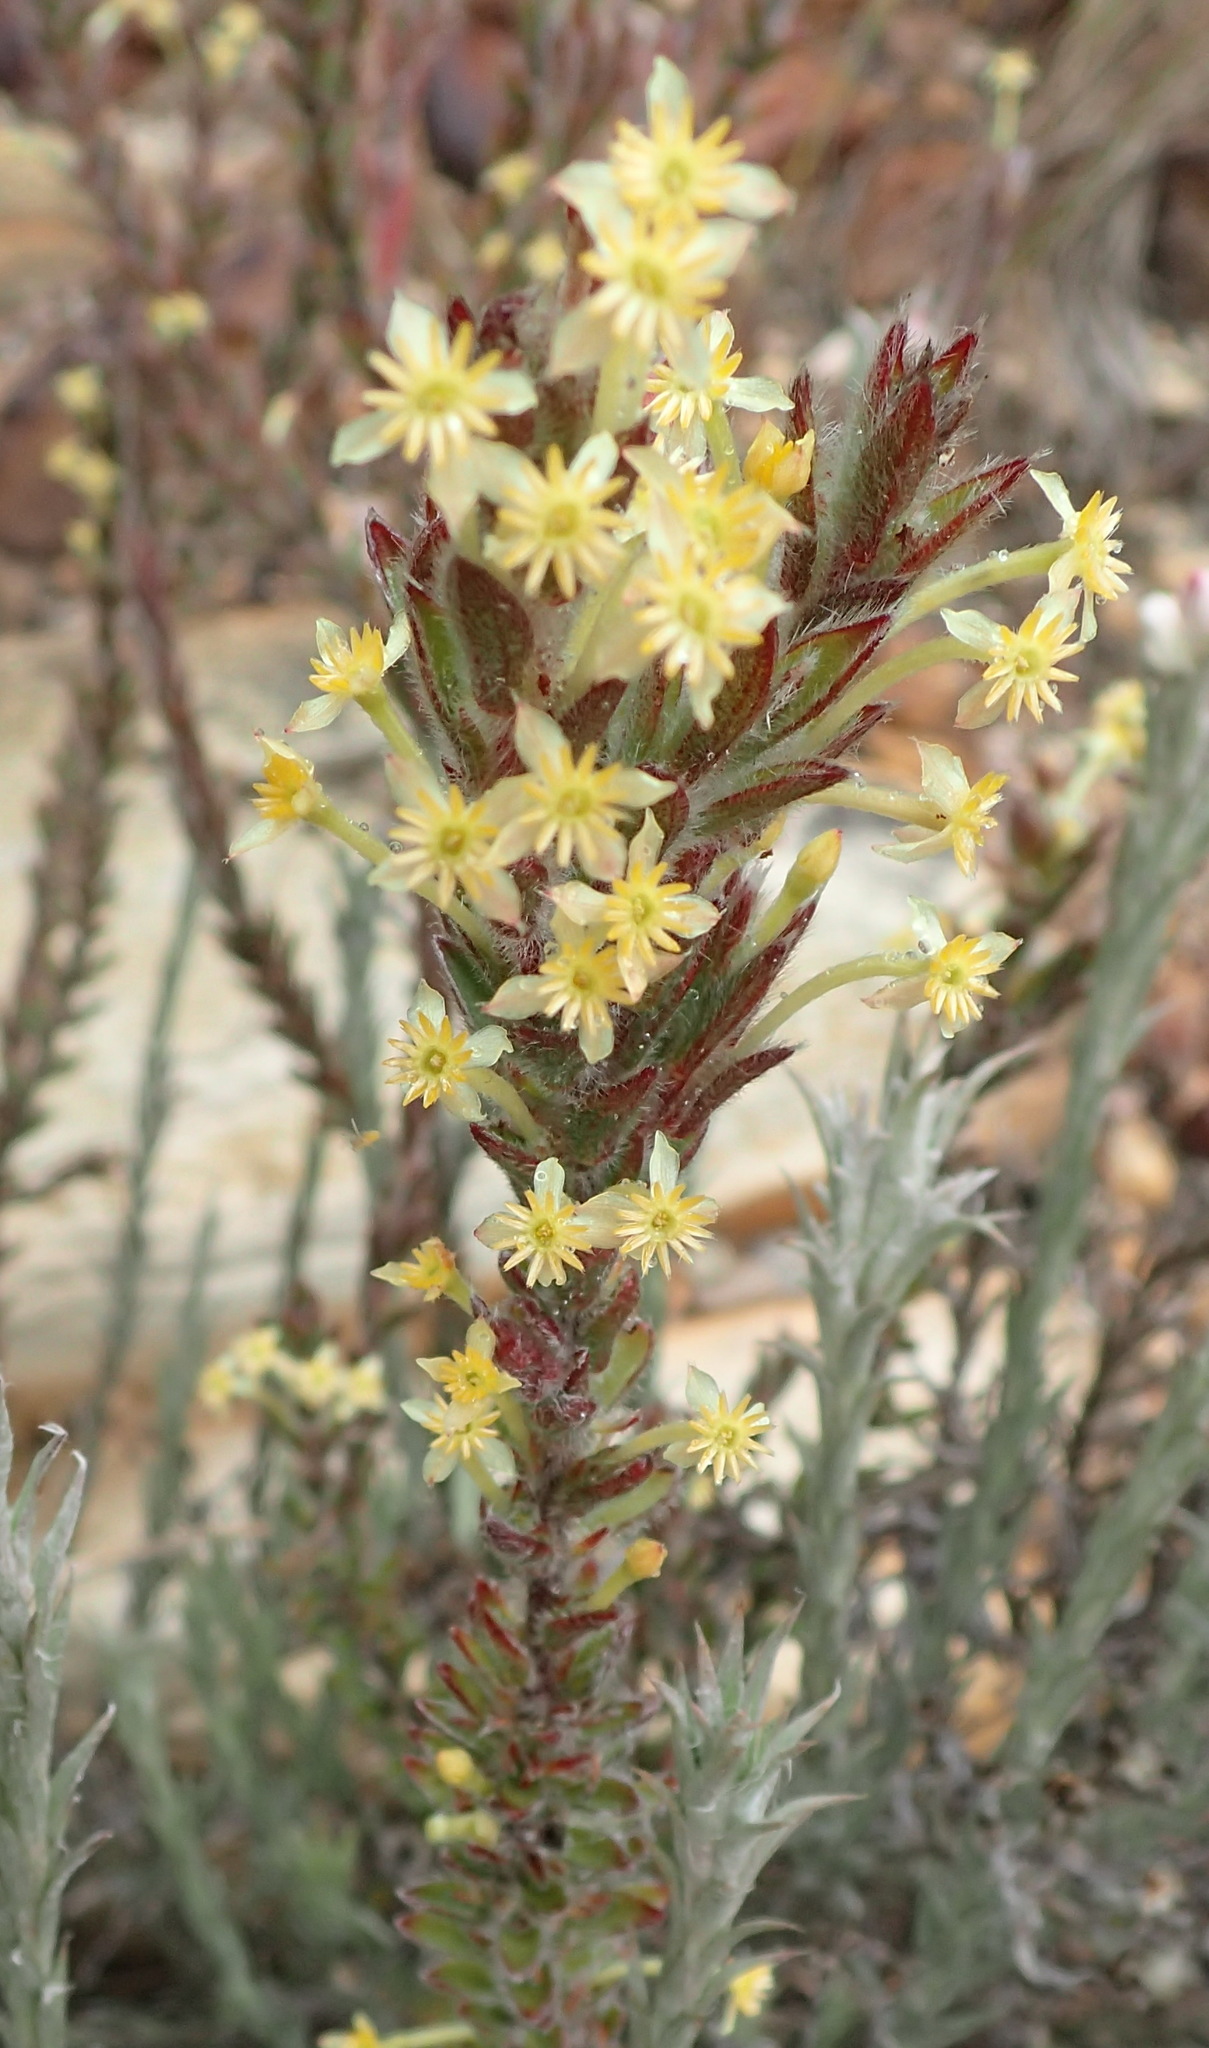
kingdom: Plantae
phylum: Tracheophyta
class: Magnoliopsida
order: Malvales
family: Thymelaeaceae
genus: Struthiola
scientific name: Struthiola tomentosa
